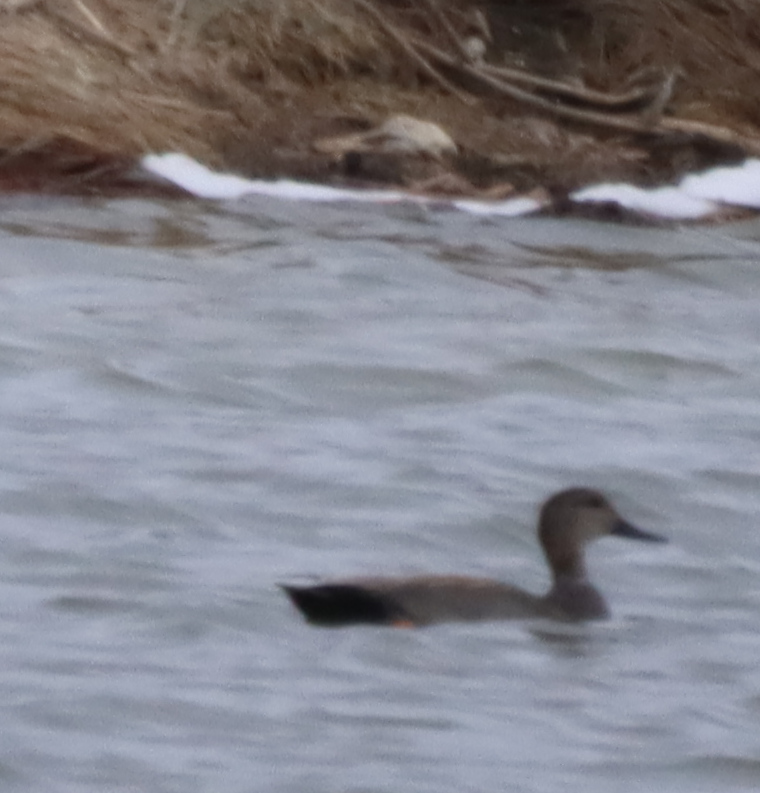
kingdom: Animalia
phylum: Chordata
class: Aves
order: Anseriformes
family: Anatidae
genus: Mareca
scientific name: Mareca strepera
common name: Gadwall
